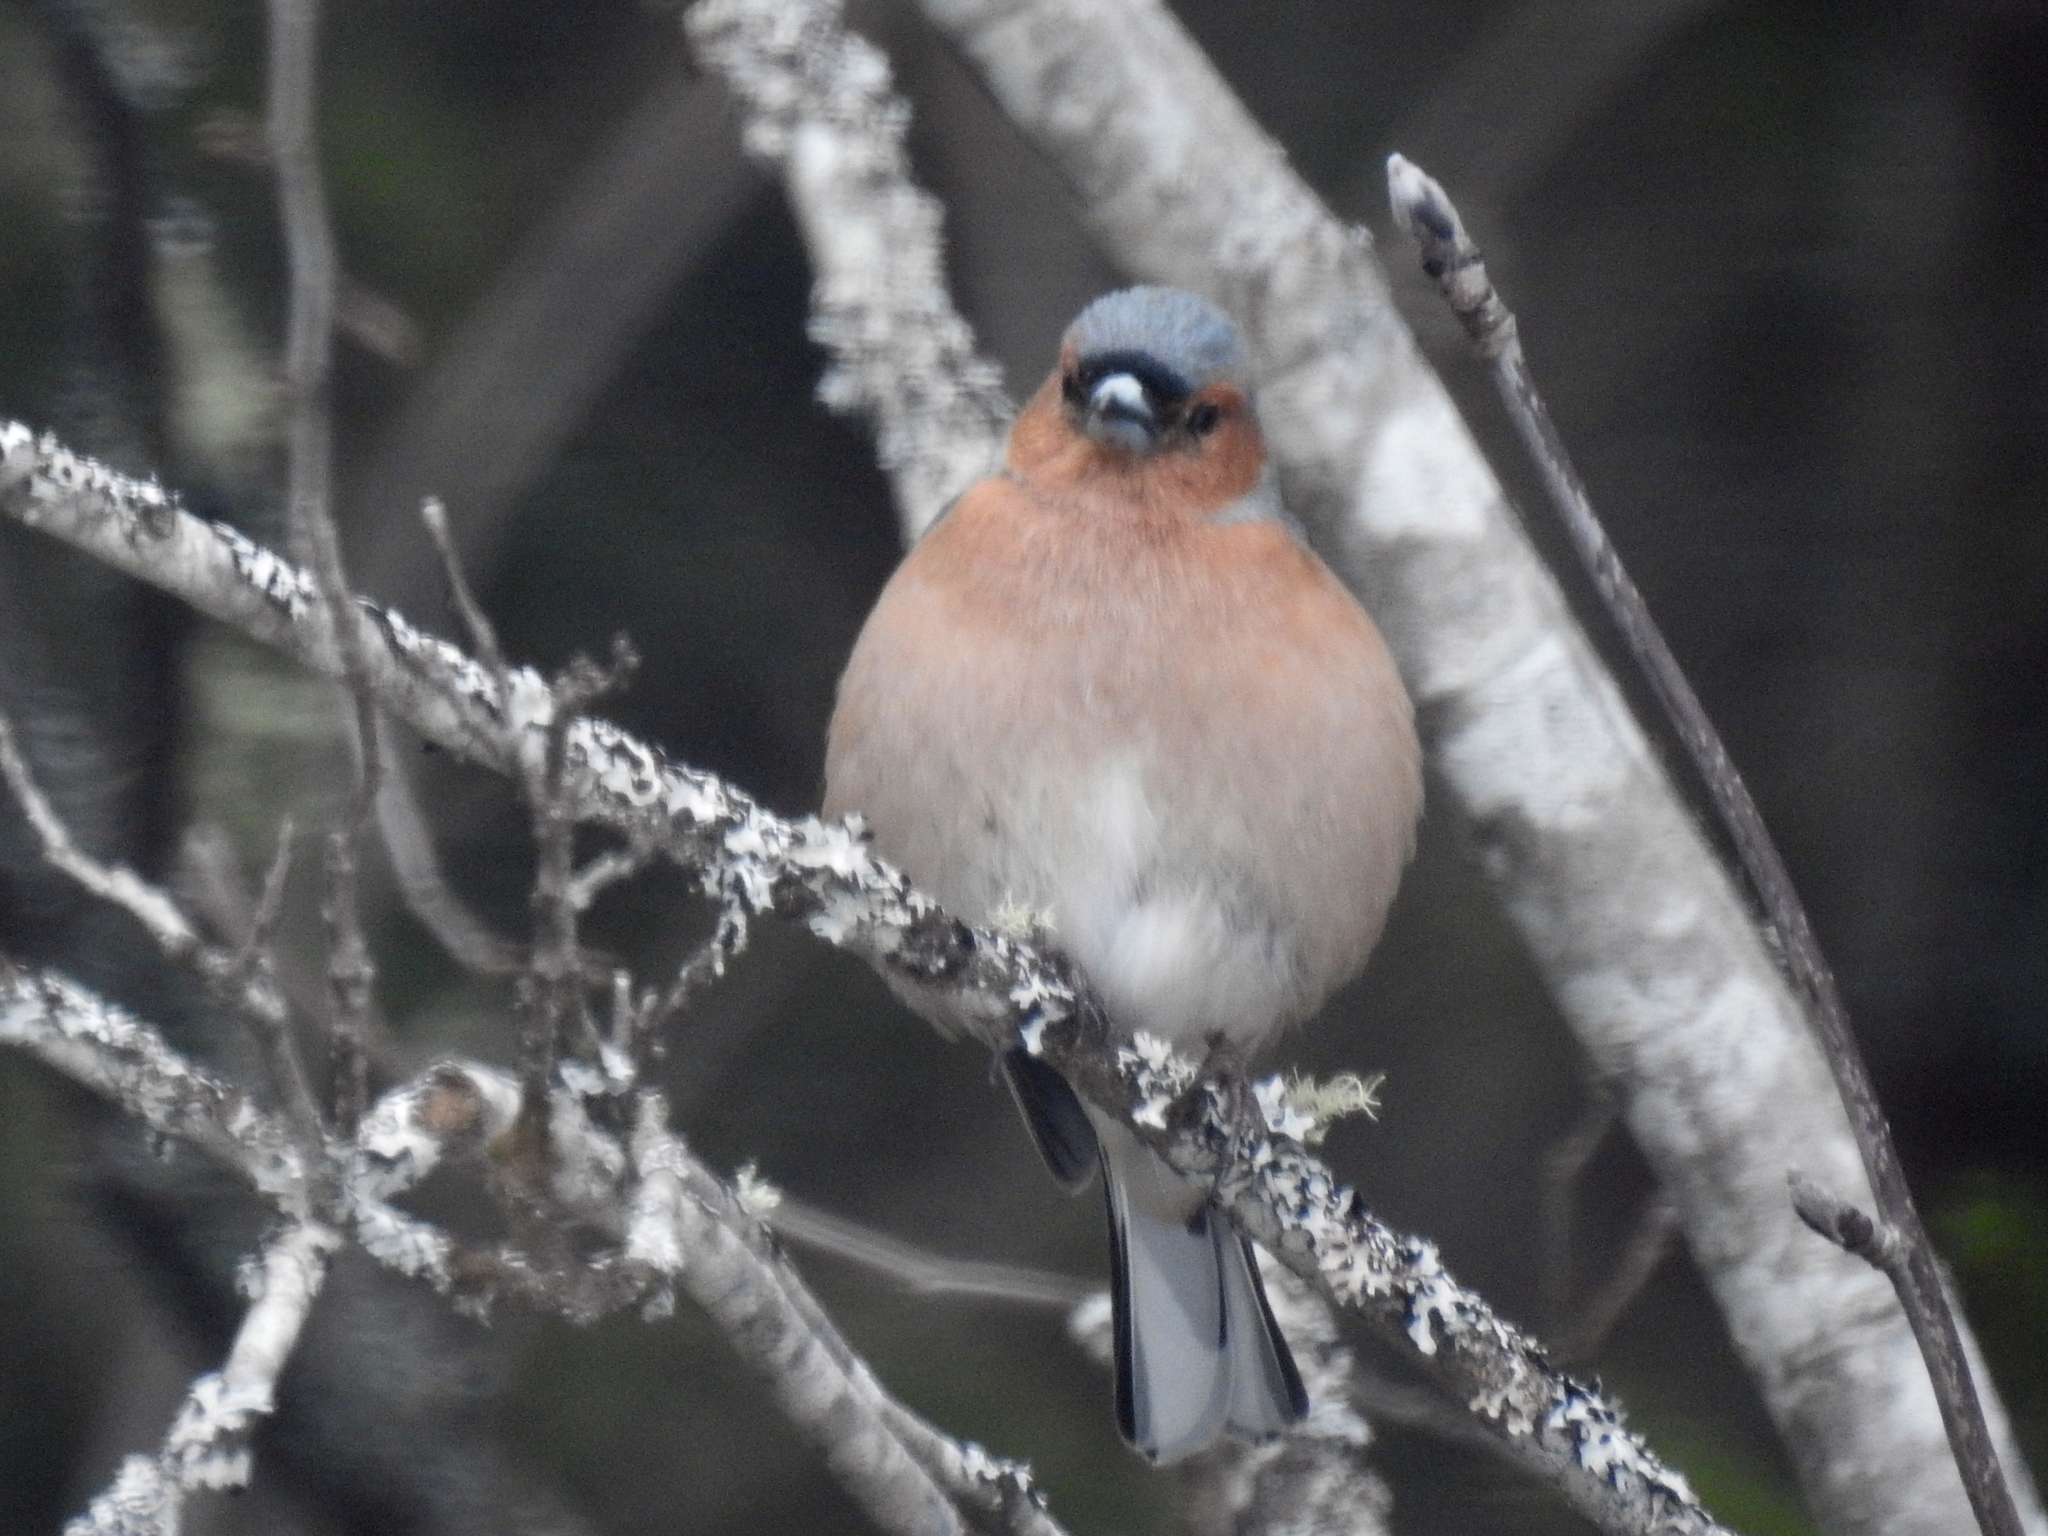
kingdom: Animalia
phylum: Chordata
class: Aves
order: Passeriformes
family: Fringillidae
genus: Fringilla
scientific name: Fringilla coelebs
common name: Common chaffinch
